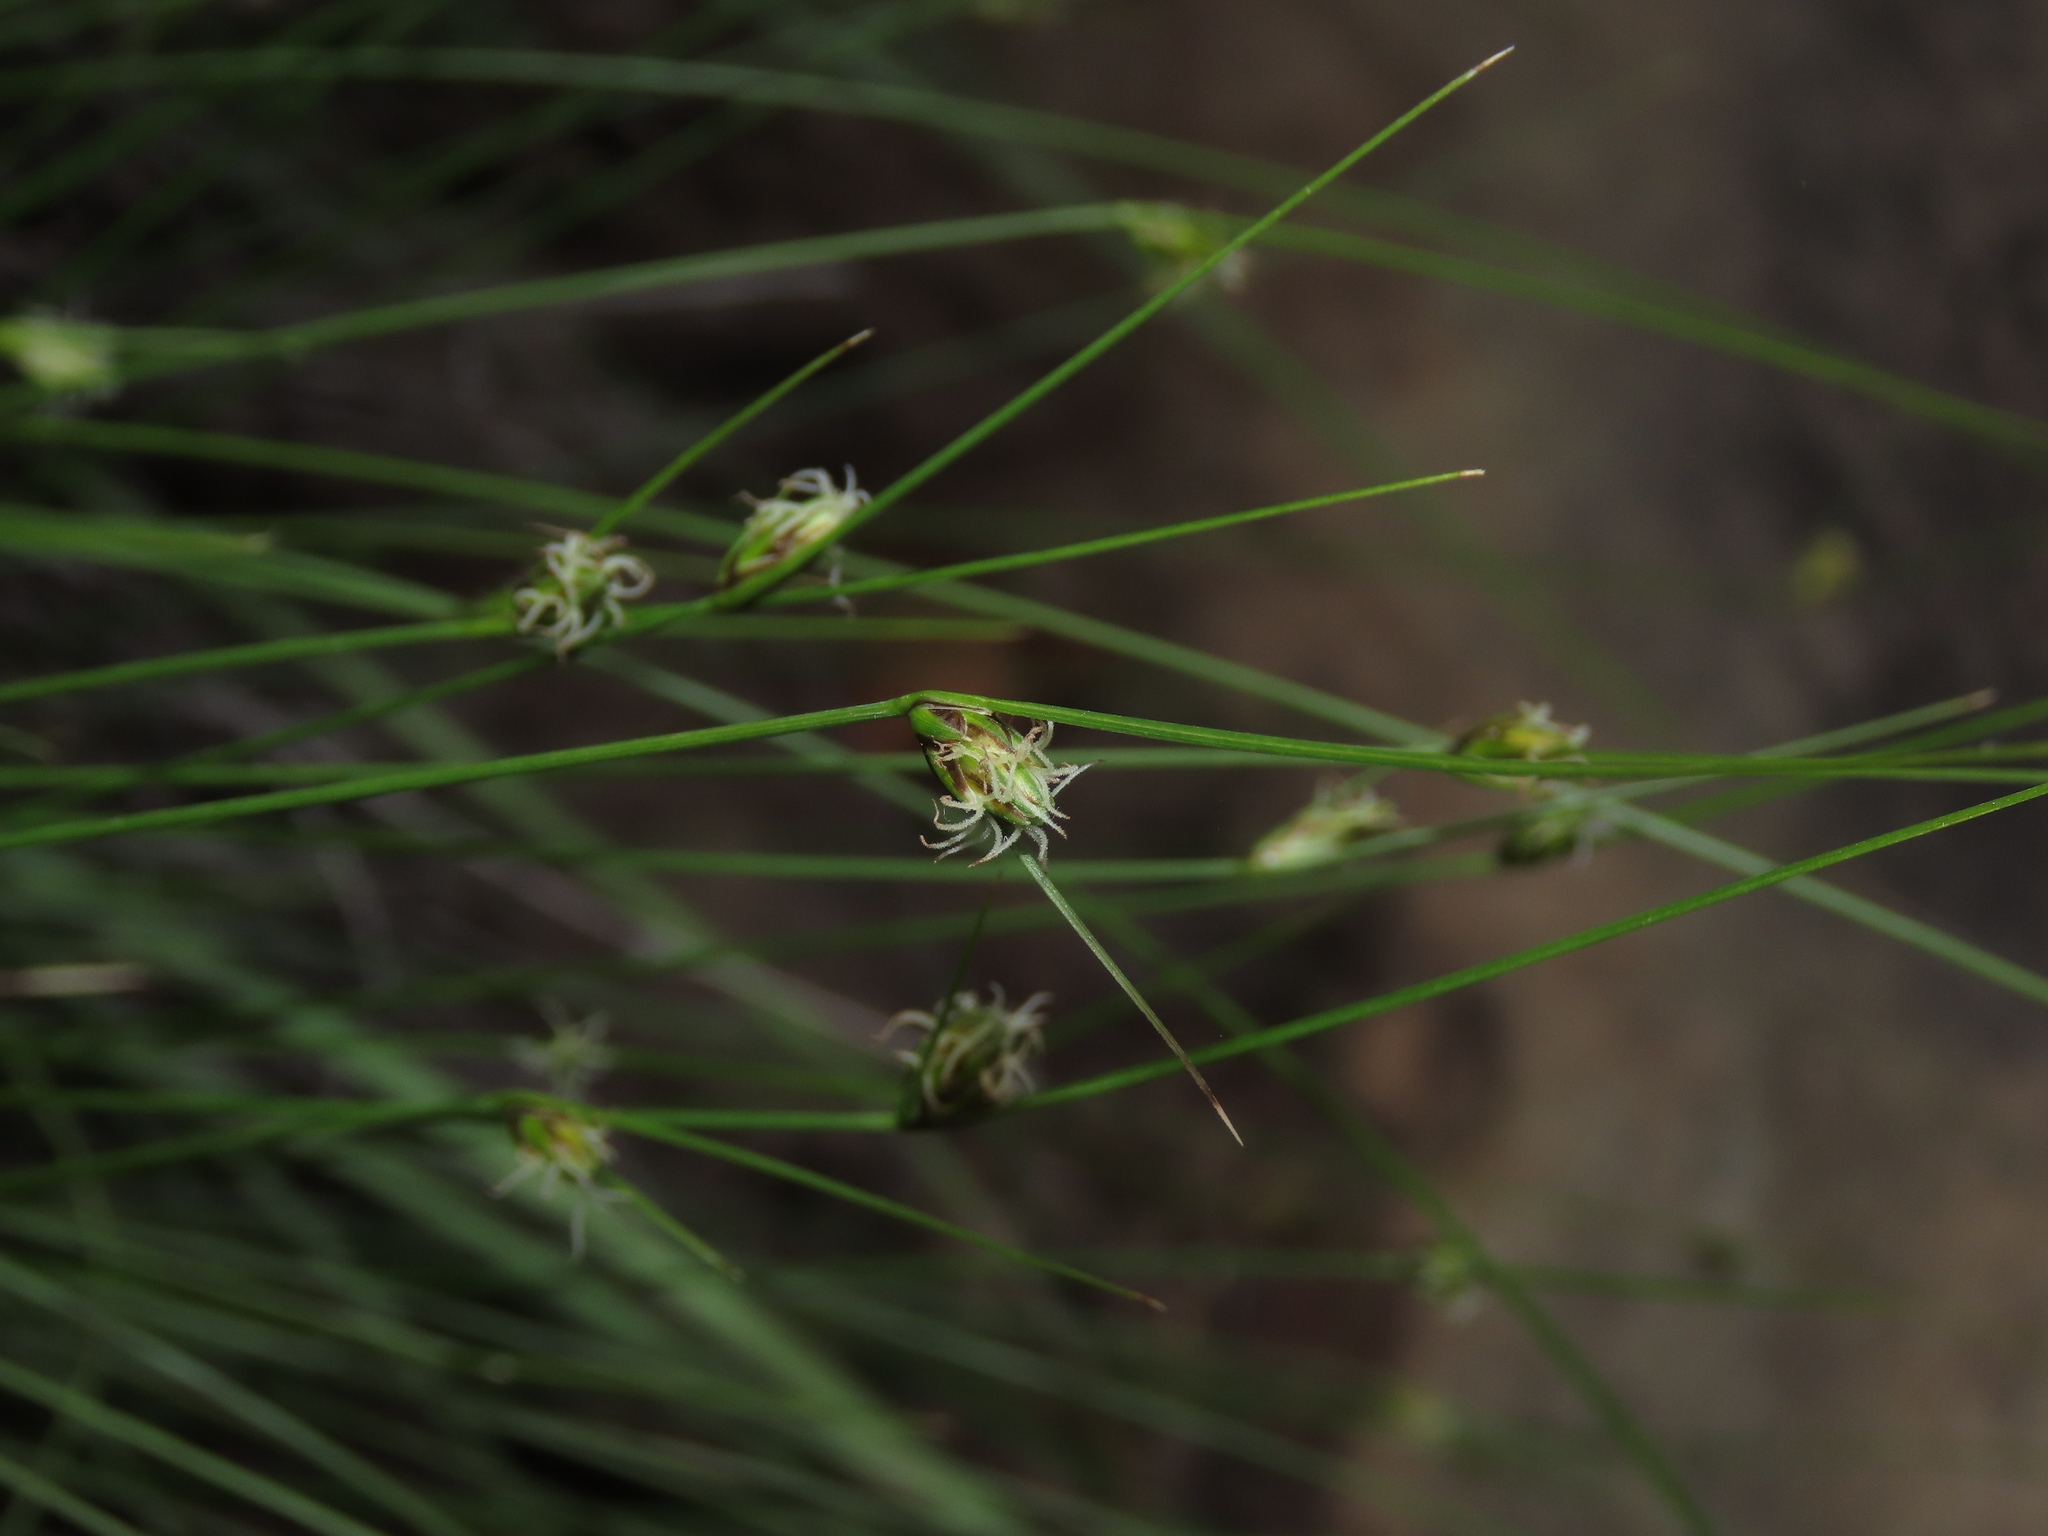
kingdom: Plantae
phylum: Tracheophyta
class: Liliopsida
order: Poales
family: Cyperaceae
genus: Carex
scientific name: Carex setifolia
